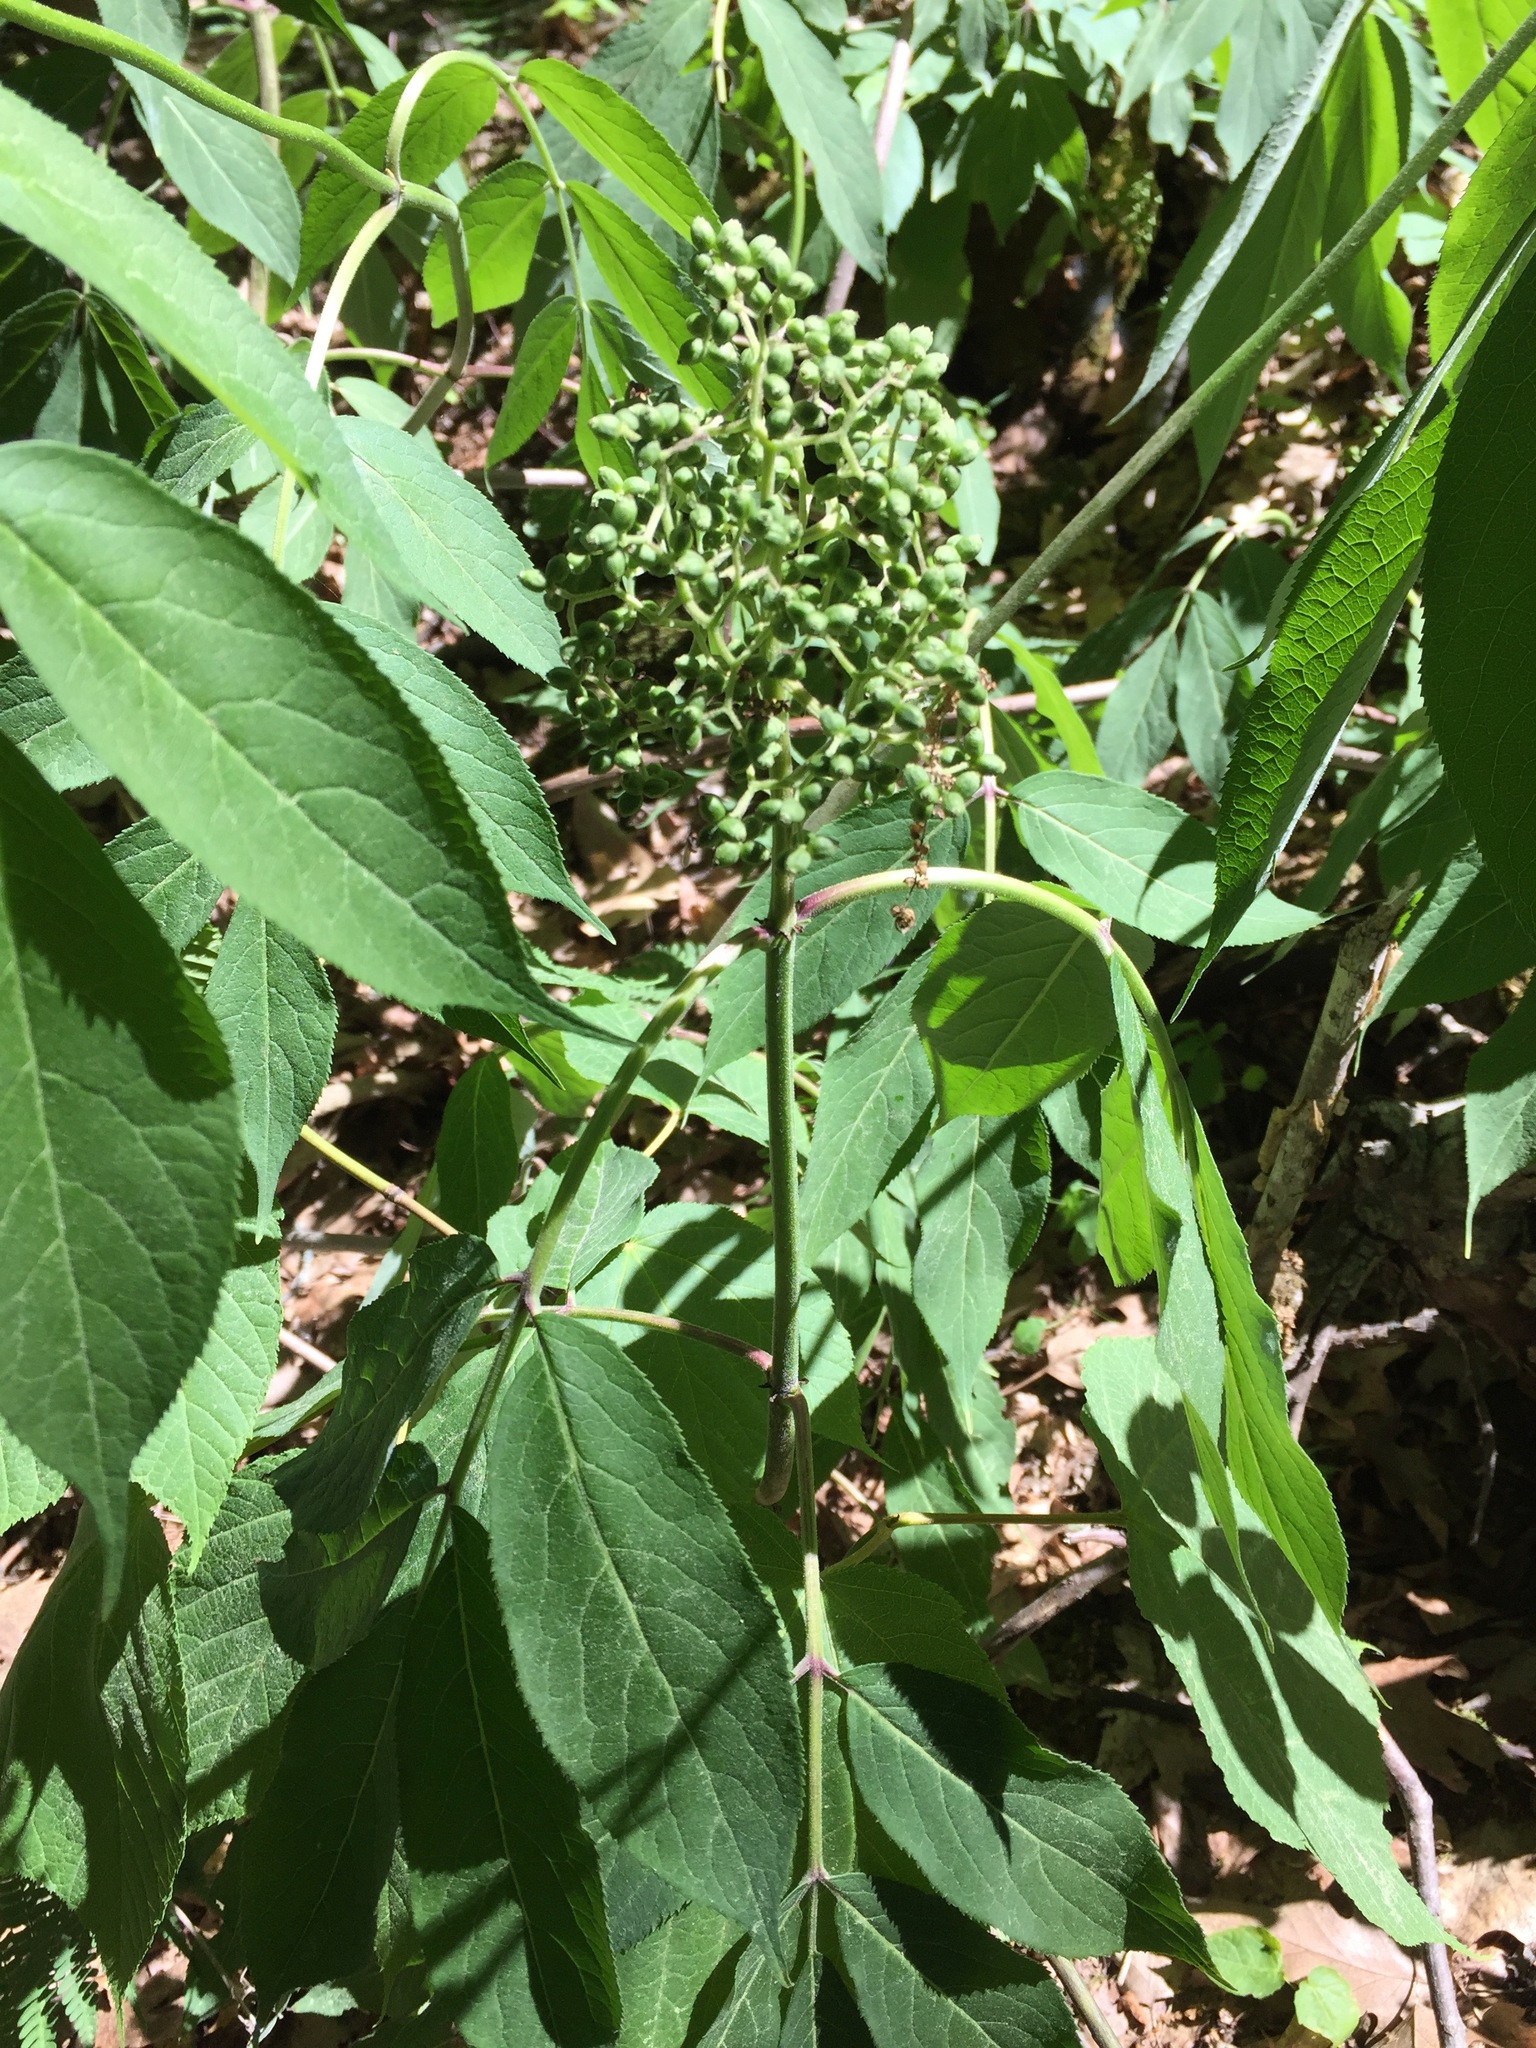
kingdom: Plantae
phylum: Tracheophyta
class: Magnoliopsida
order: Dipsacales
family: Viburnaceae
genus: Sambucus
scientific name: Sambucus racemosa
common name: Red-berried elder
